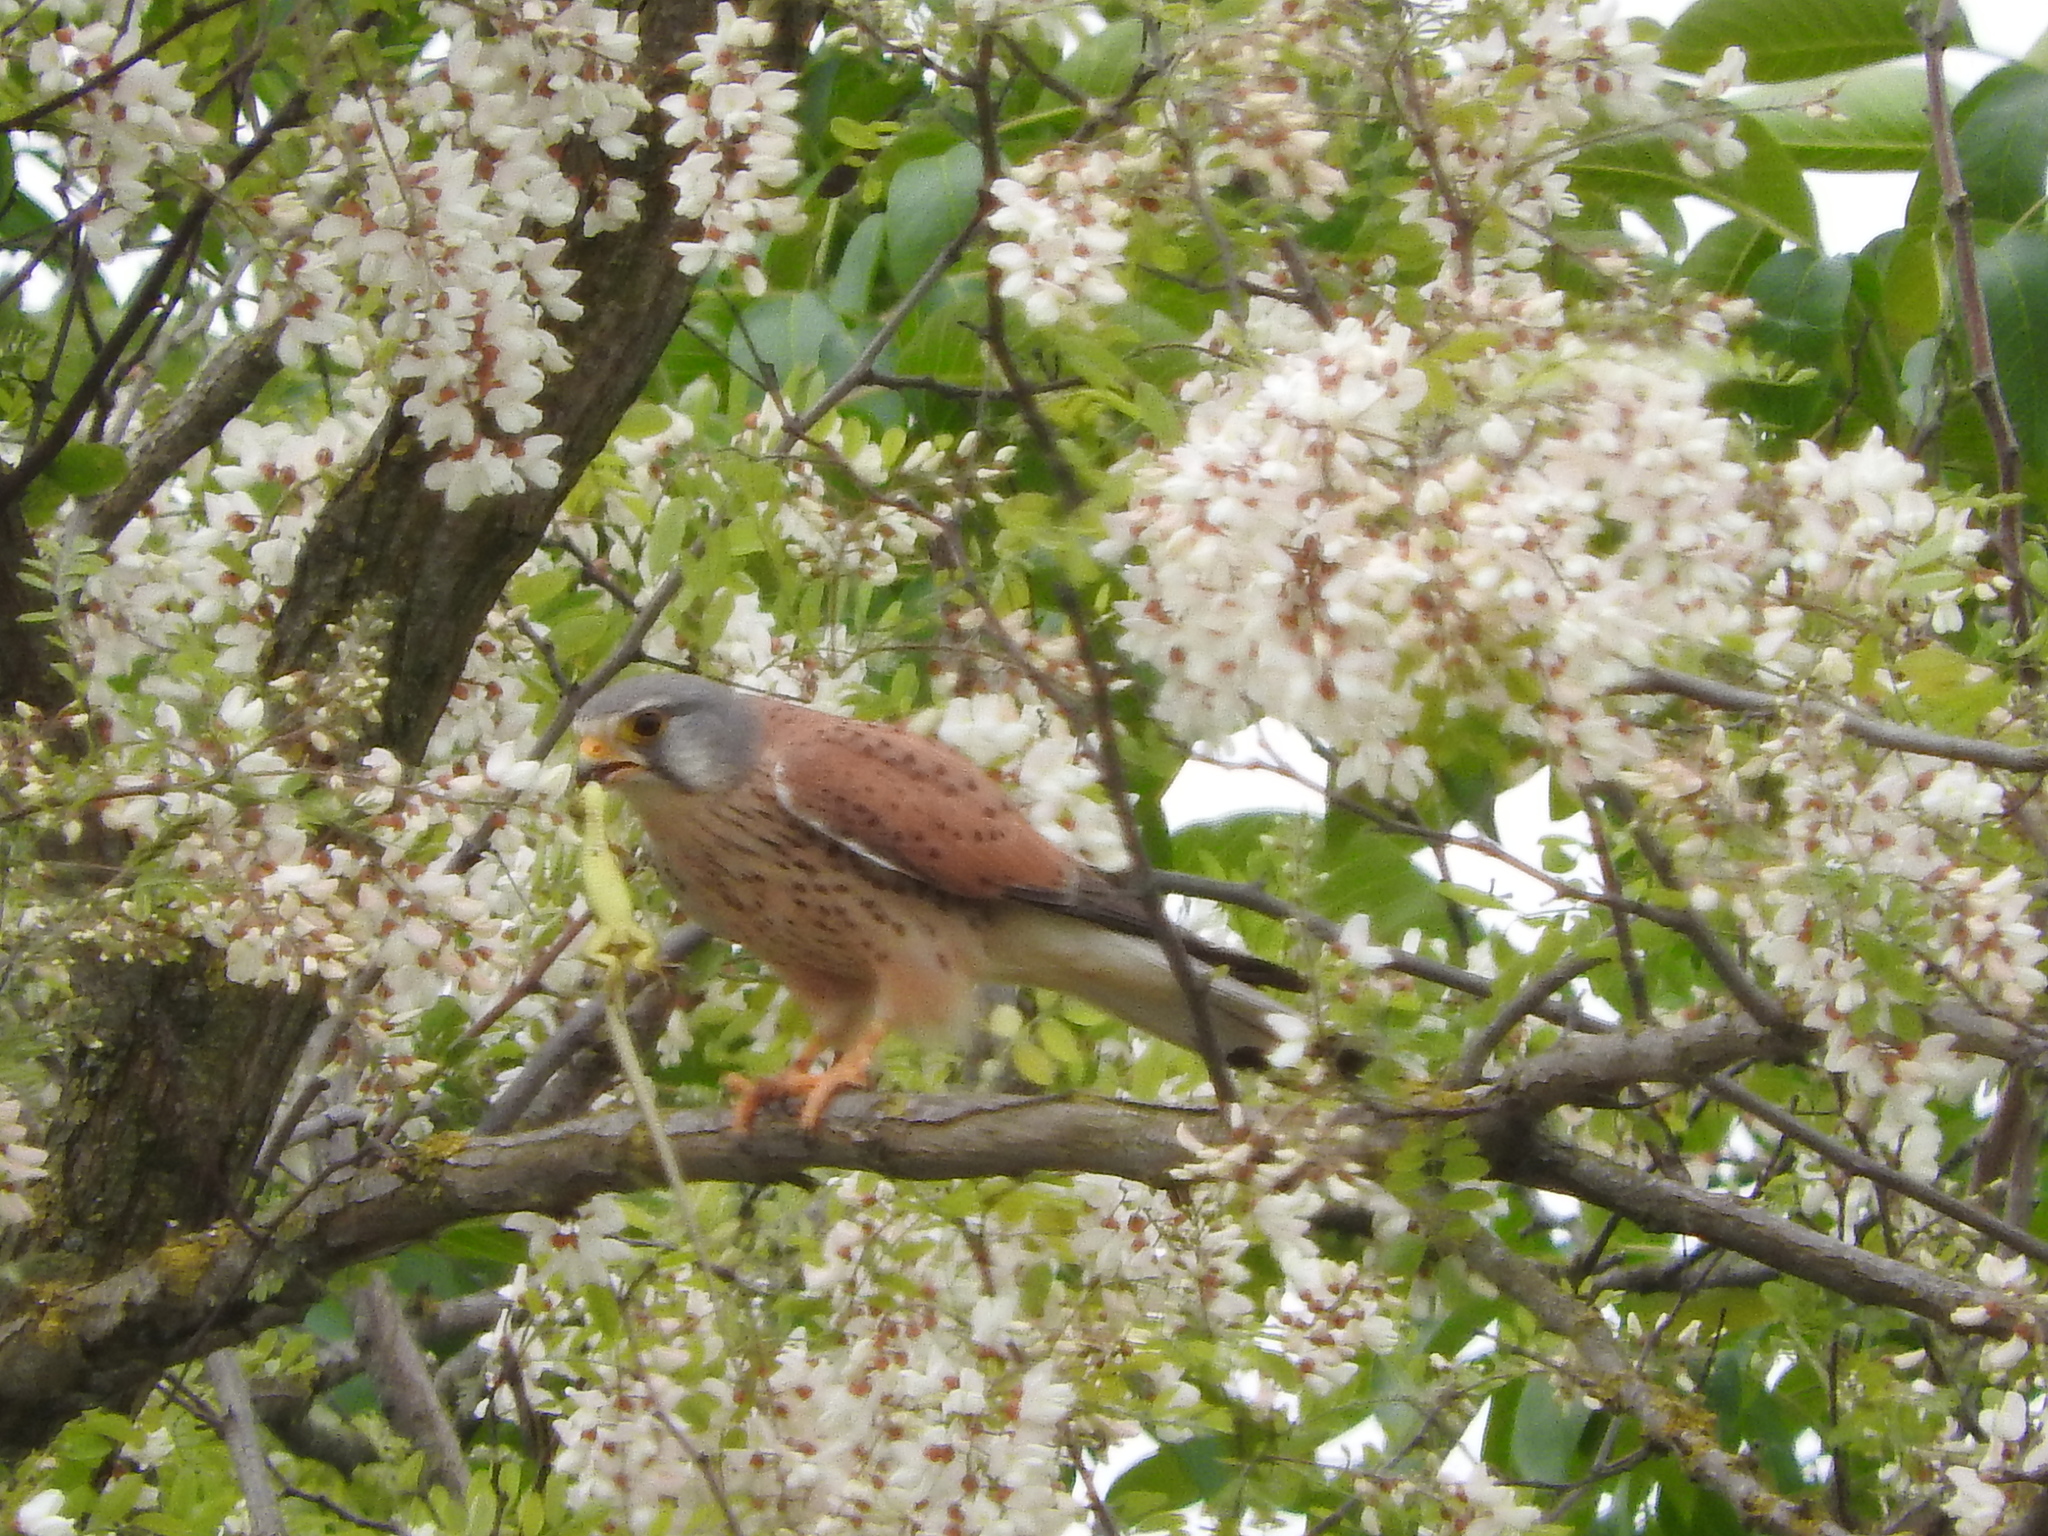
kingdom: Animalia
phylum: Chordata
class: Aves
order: Falconiformes
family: Falconidae
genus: Falco
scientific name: Falco tinnunculus
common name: Common kestrel
